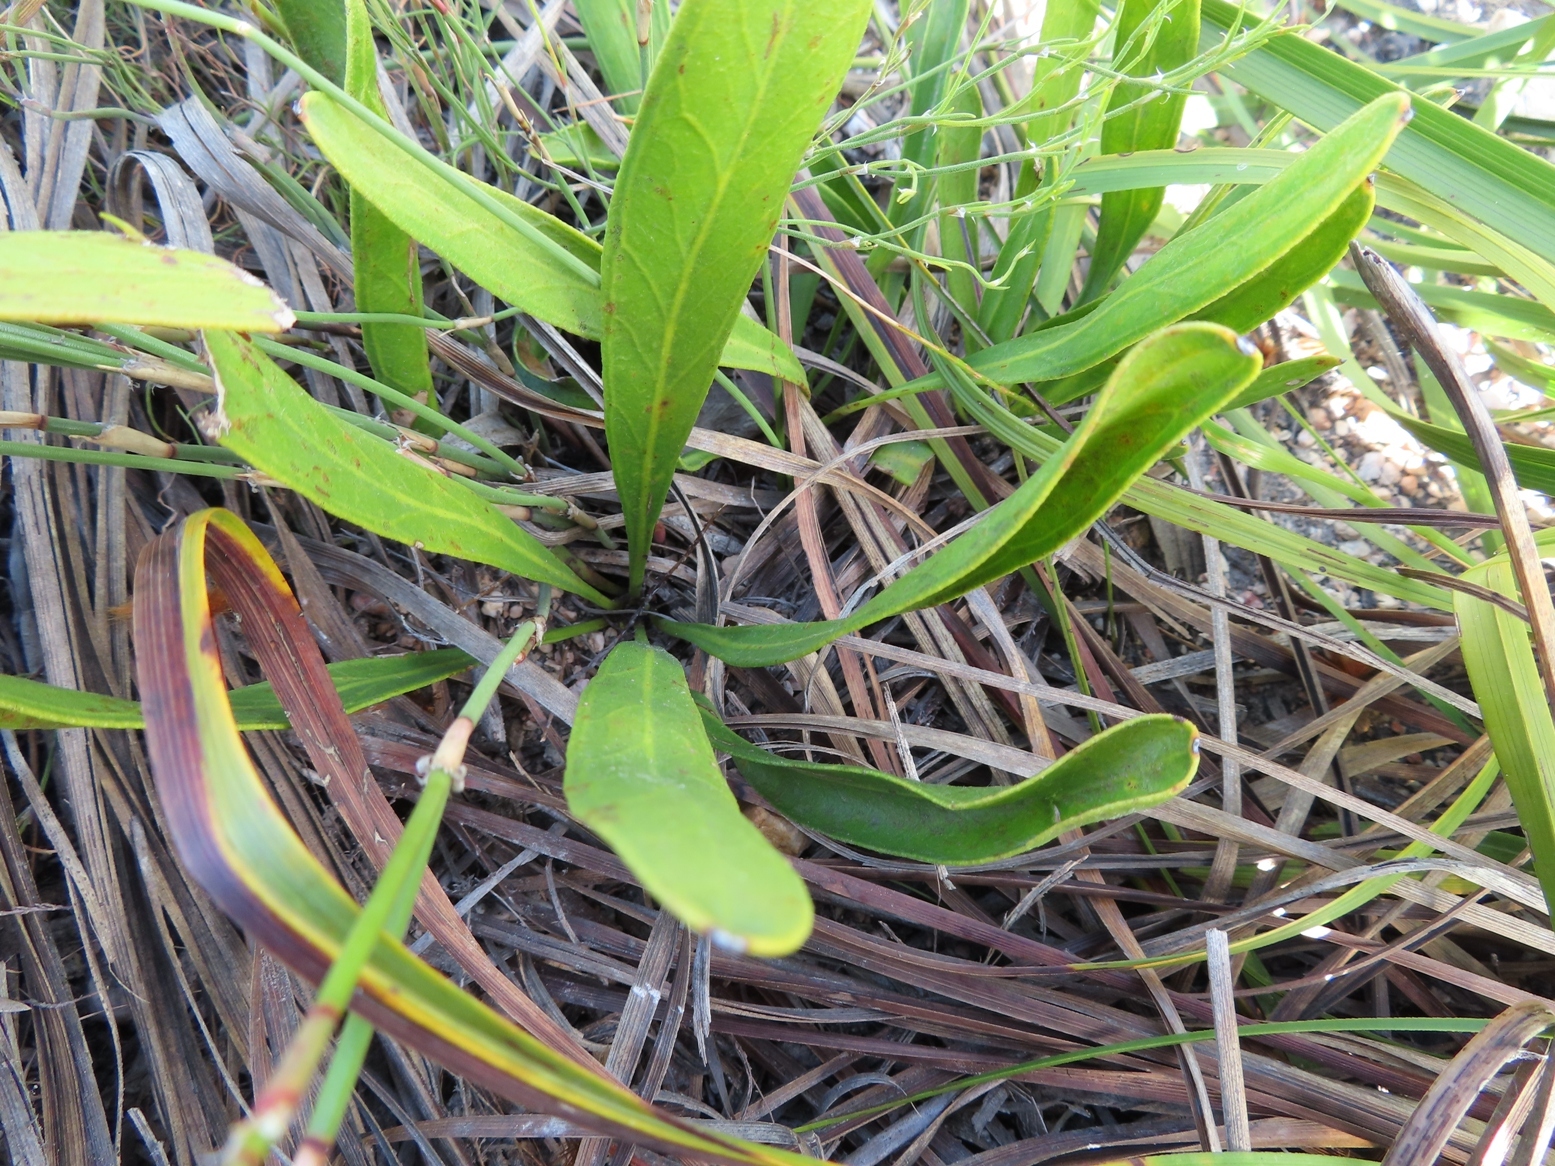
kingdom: Plantae
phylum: Tracheophyta
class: Magnoliopsida
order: Proteales
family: Proteaceae
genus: Protea
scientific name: Protea acaulos
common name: Common ground sugarbush
